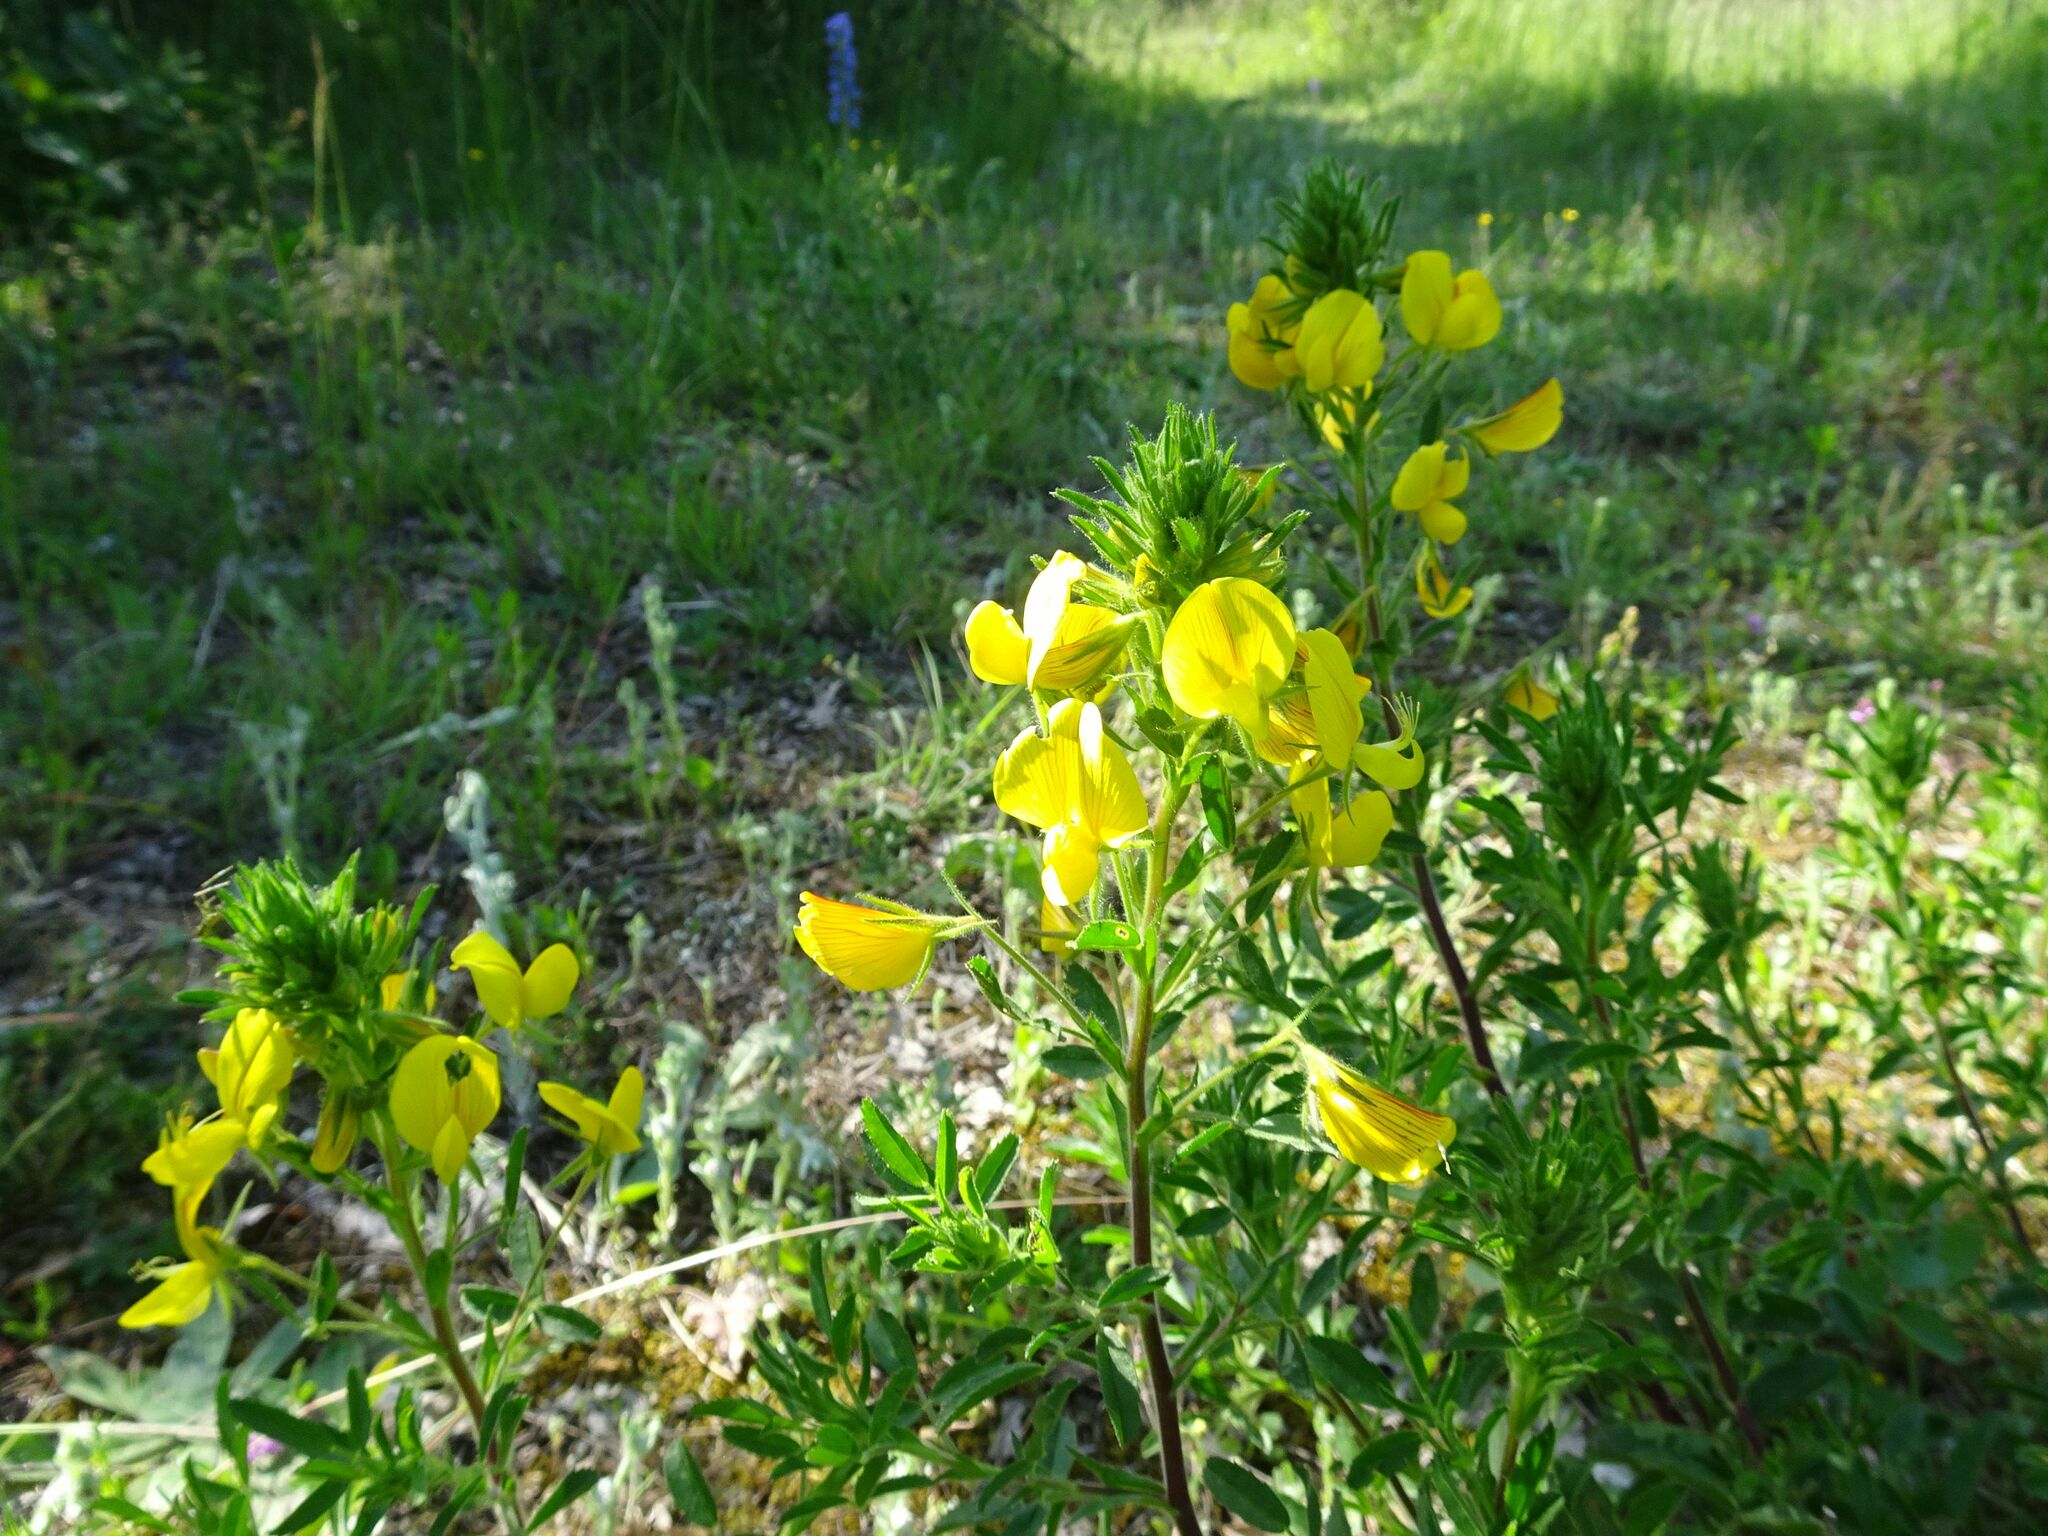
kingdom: Plantae
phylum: Tracheophyta
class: Magnoliopsida
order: Fabales
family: Fabaceae
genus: Ononis
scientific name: Ononis natrix
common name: Yellow restharrow
